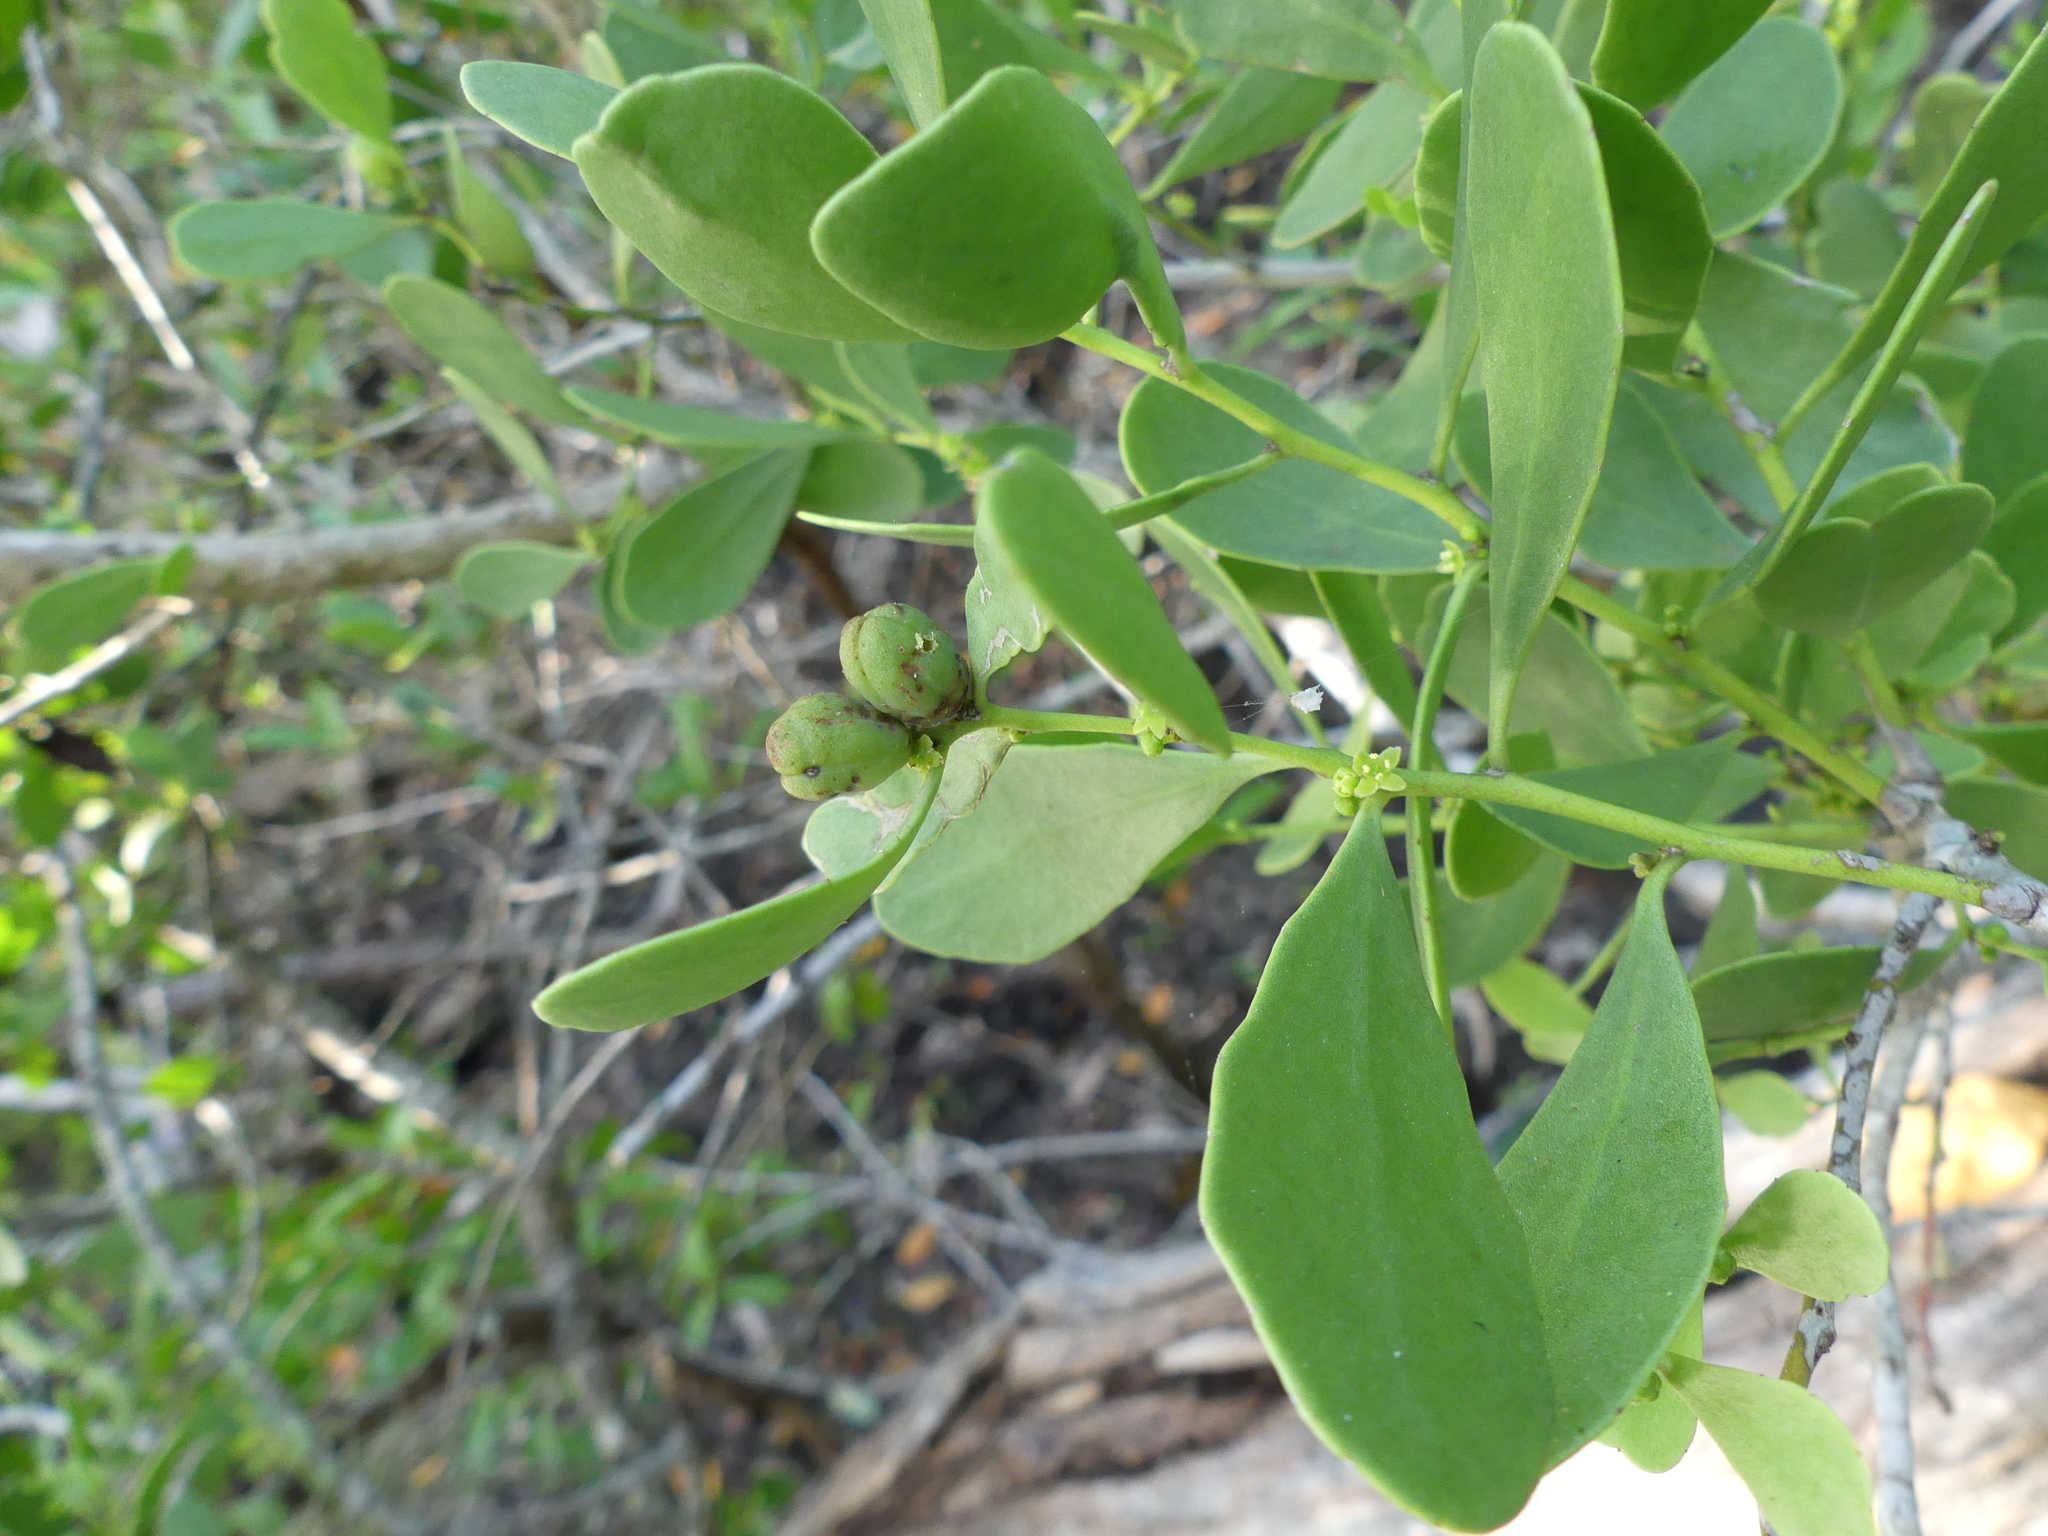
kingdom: Plantae
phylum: Tracheophyta
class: Magnoliopsida
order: Celastrales
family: Celastraceae
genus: Tricerma
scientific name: Tricerma phyllanthoides
